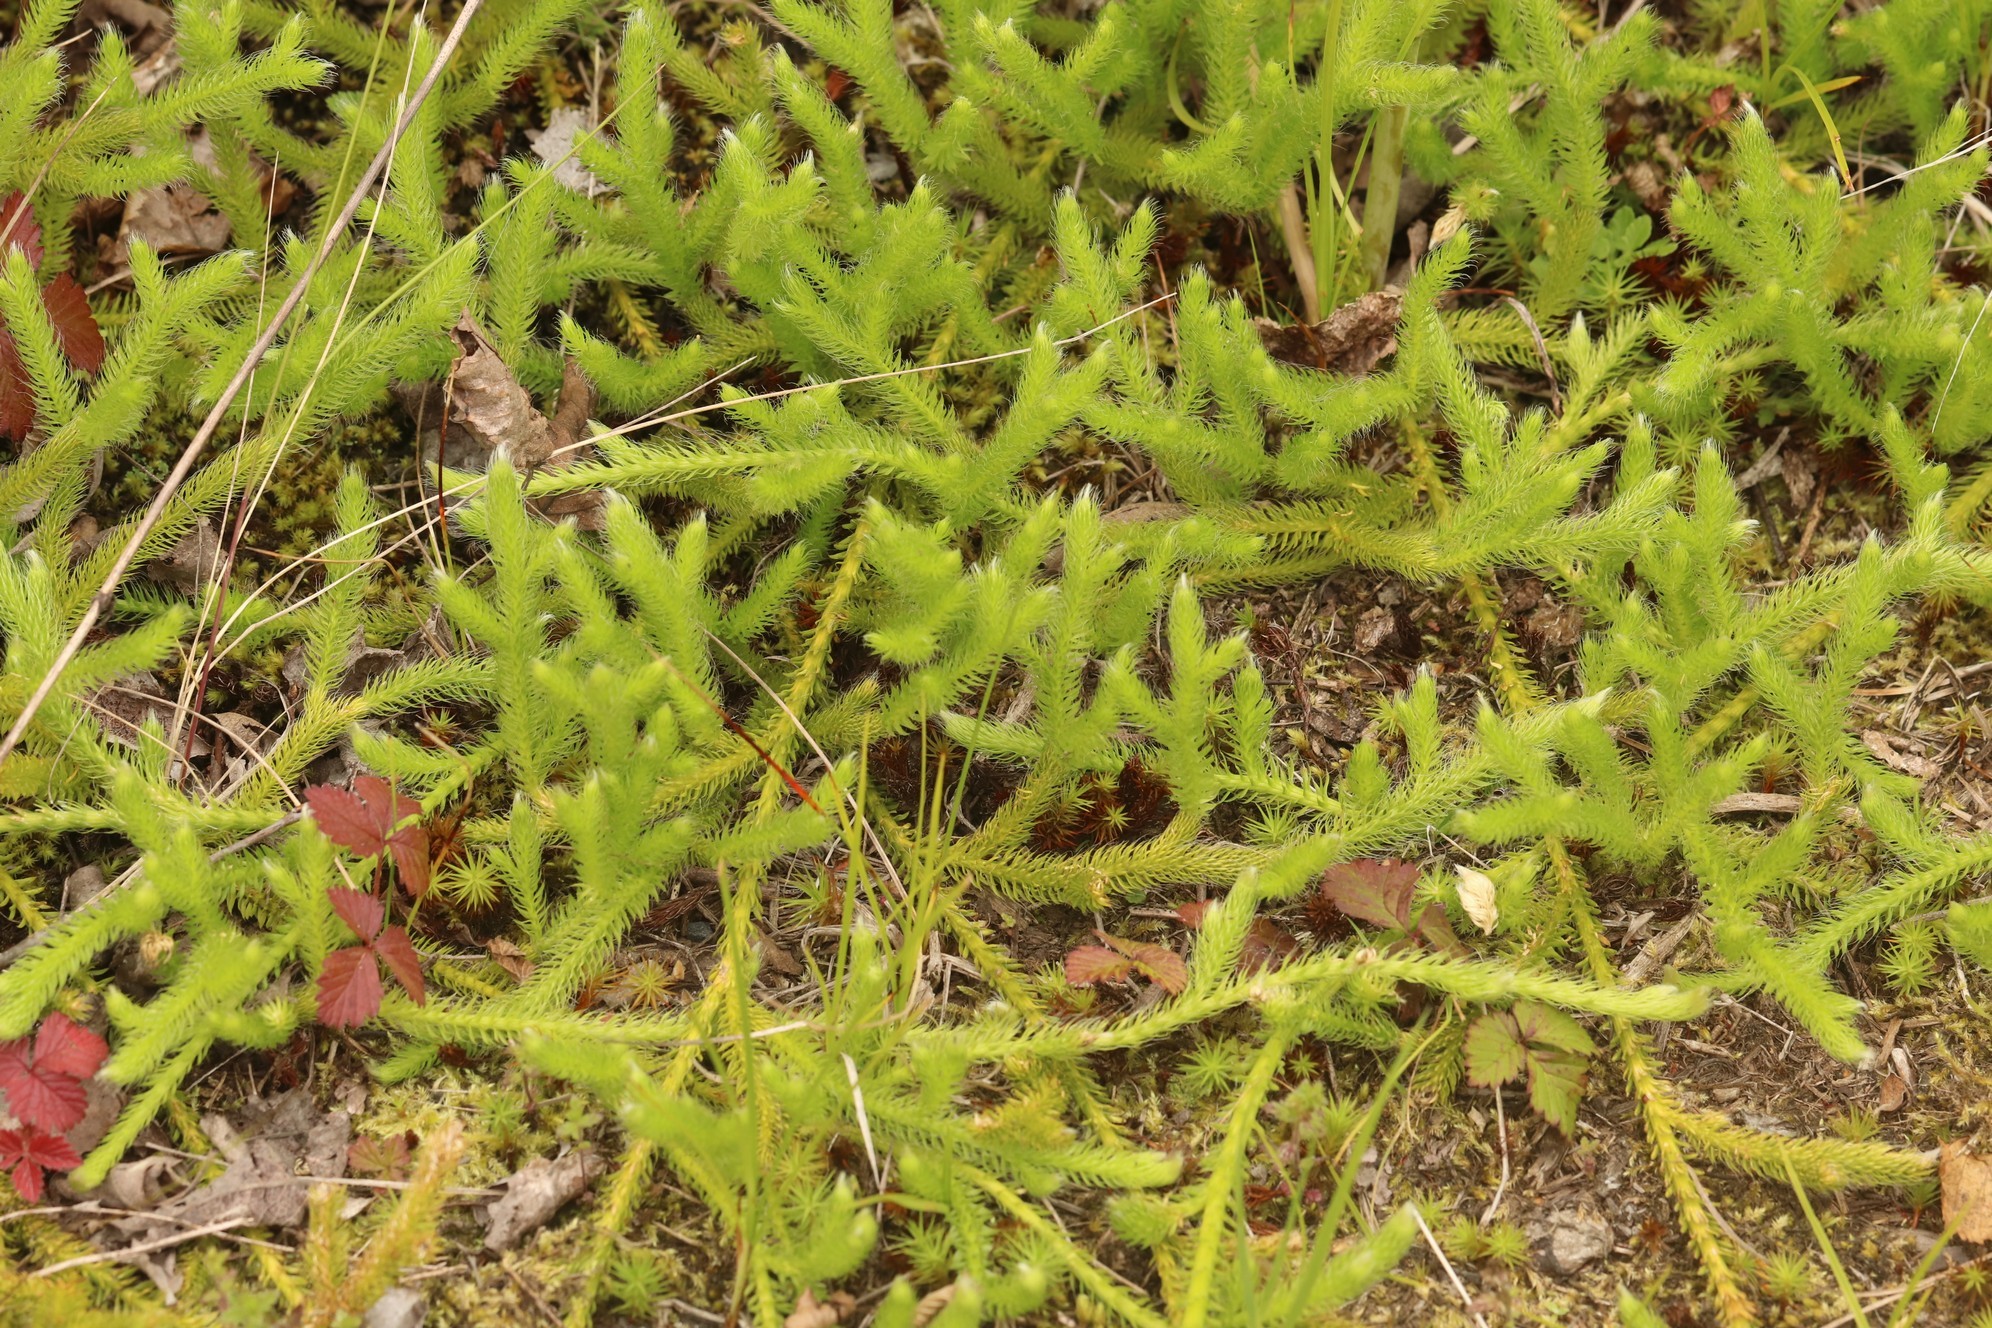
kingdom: Plantae
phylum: Tracheophyta
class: Lycopodiopsida
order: Lycopodiales
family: Lycopodiaceae
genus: Lycopodium
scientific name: Lycopodium clavatum
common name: Stag's-horn clubmoss
